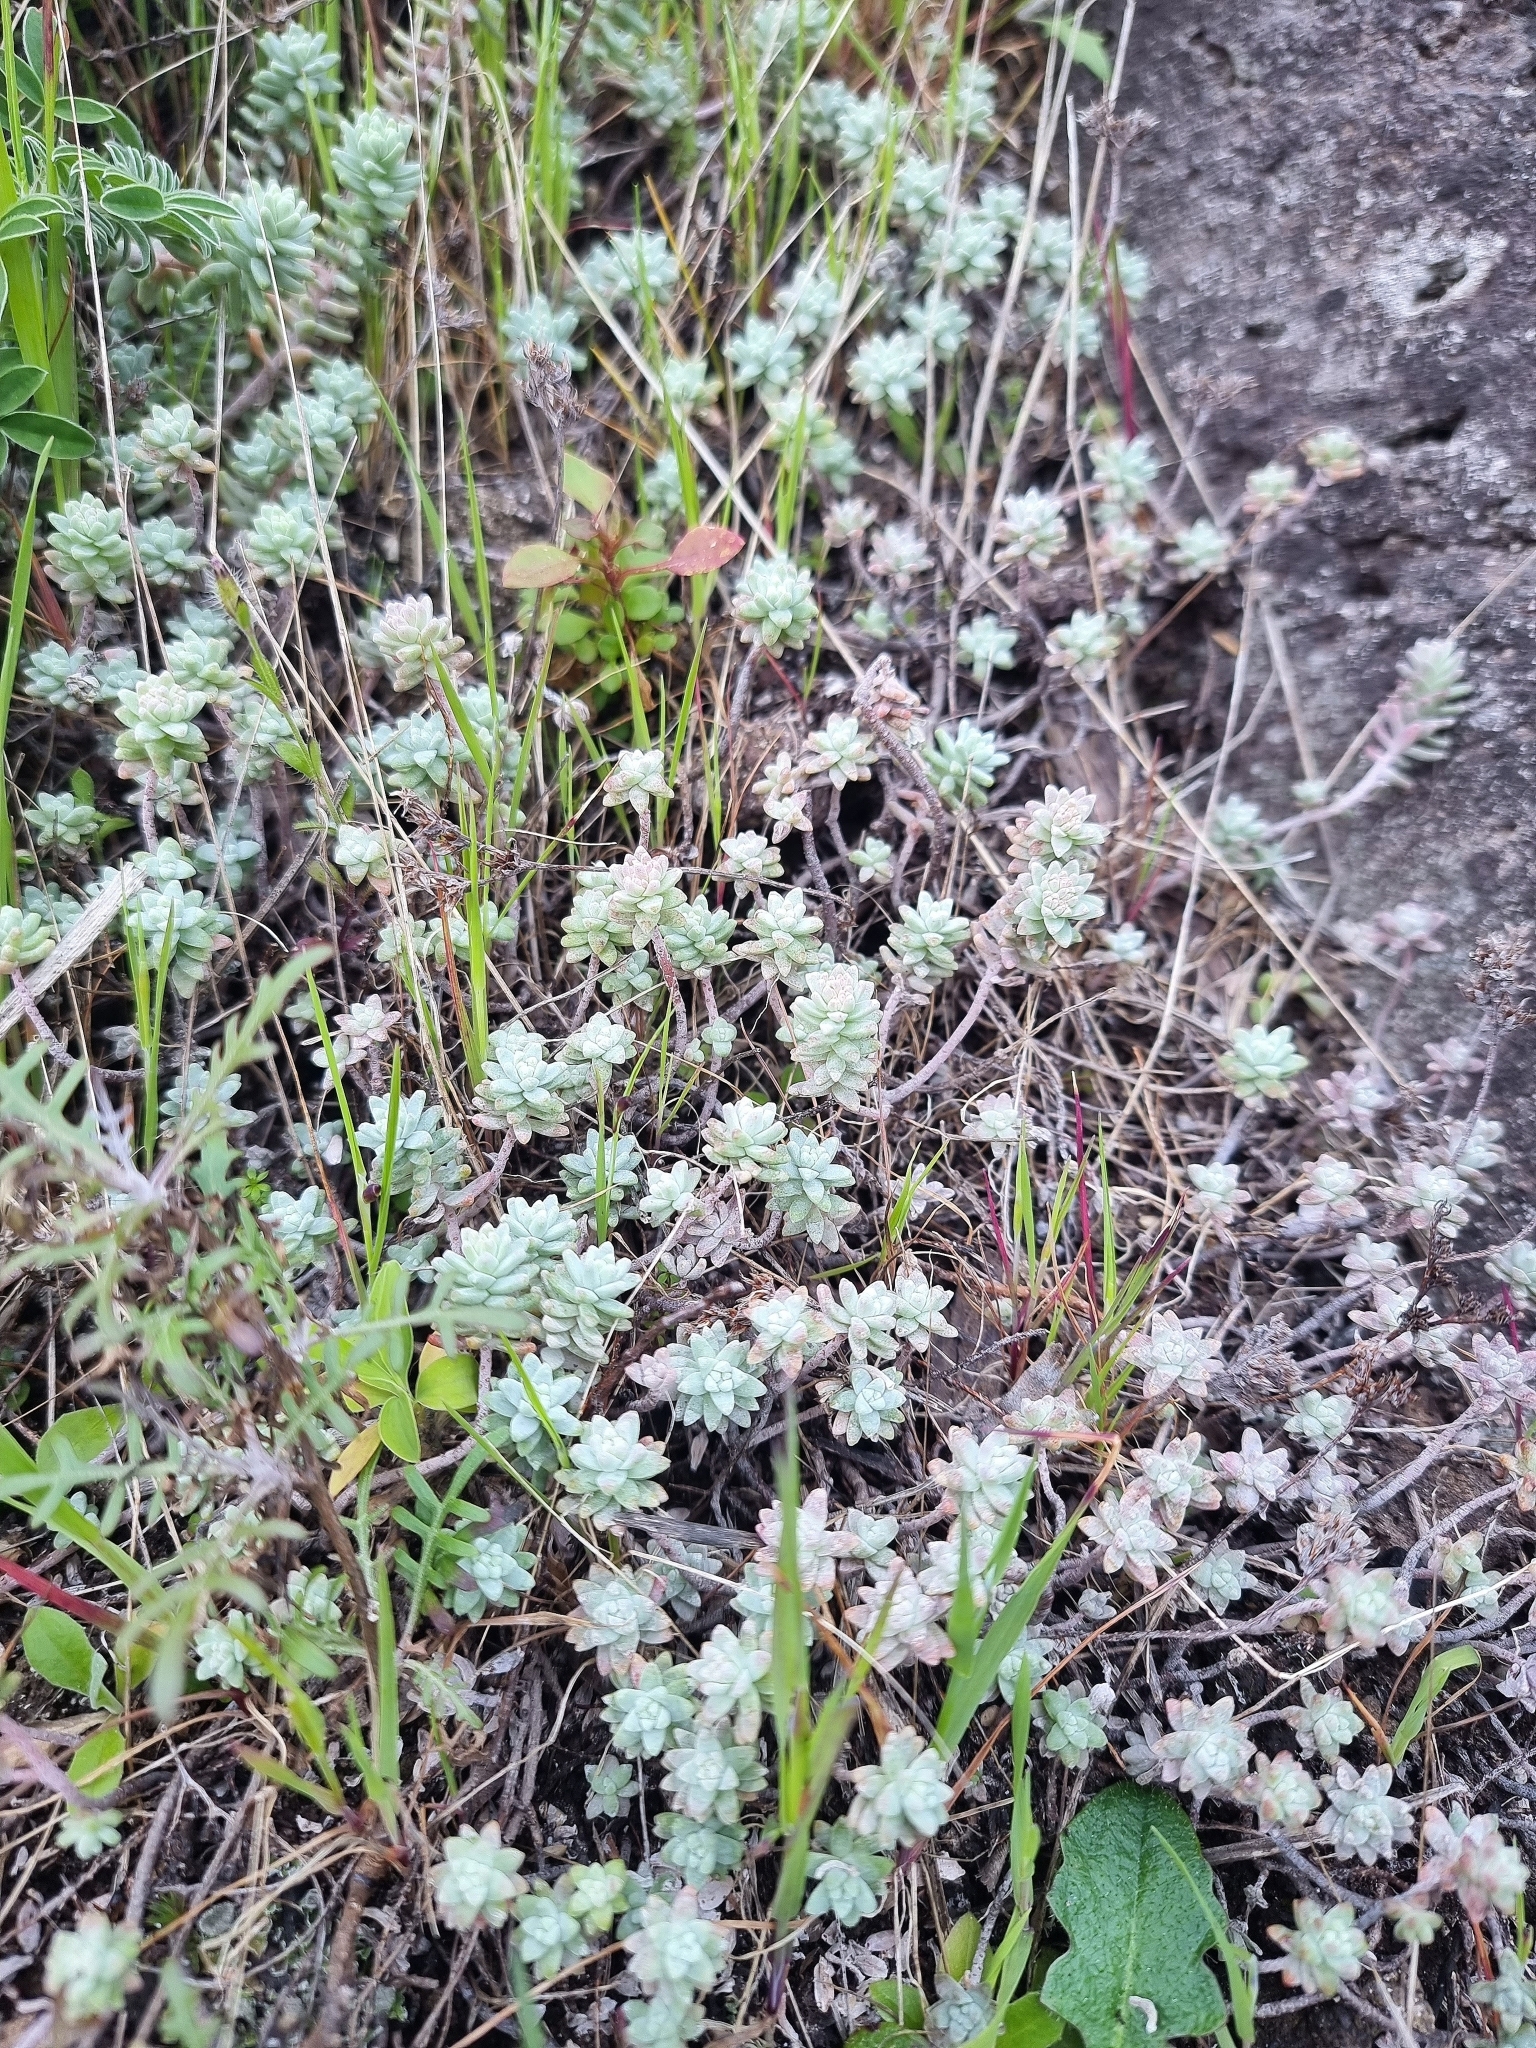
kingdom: Plantae
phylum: Tracheophyta
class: Magnoliopsida
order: Saxifragales
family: Crassulaceae
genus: Sedum
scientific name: Sedum farinosum
